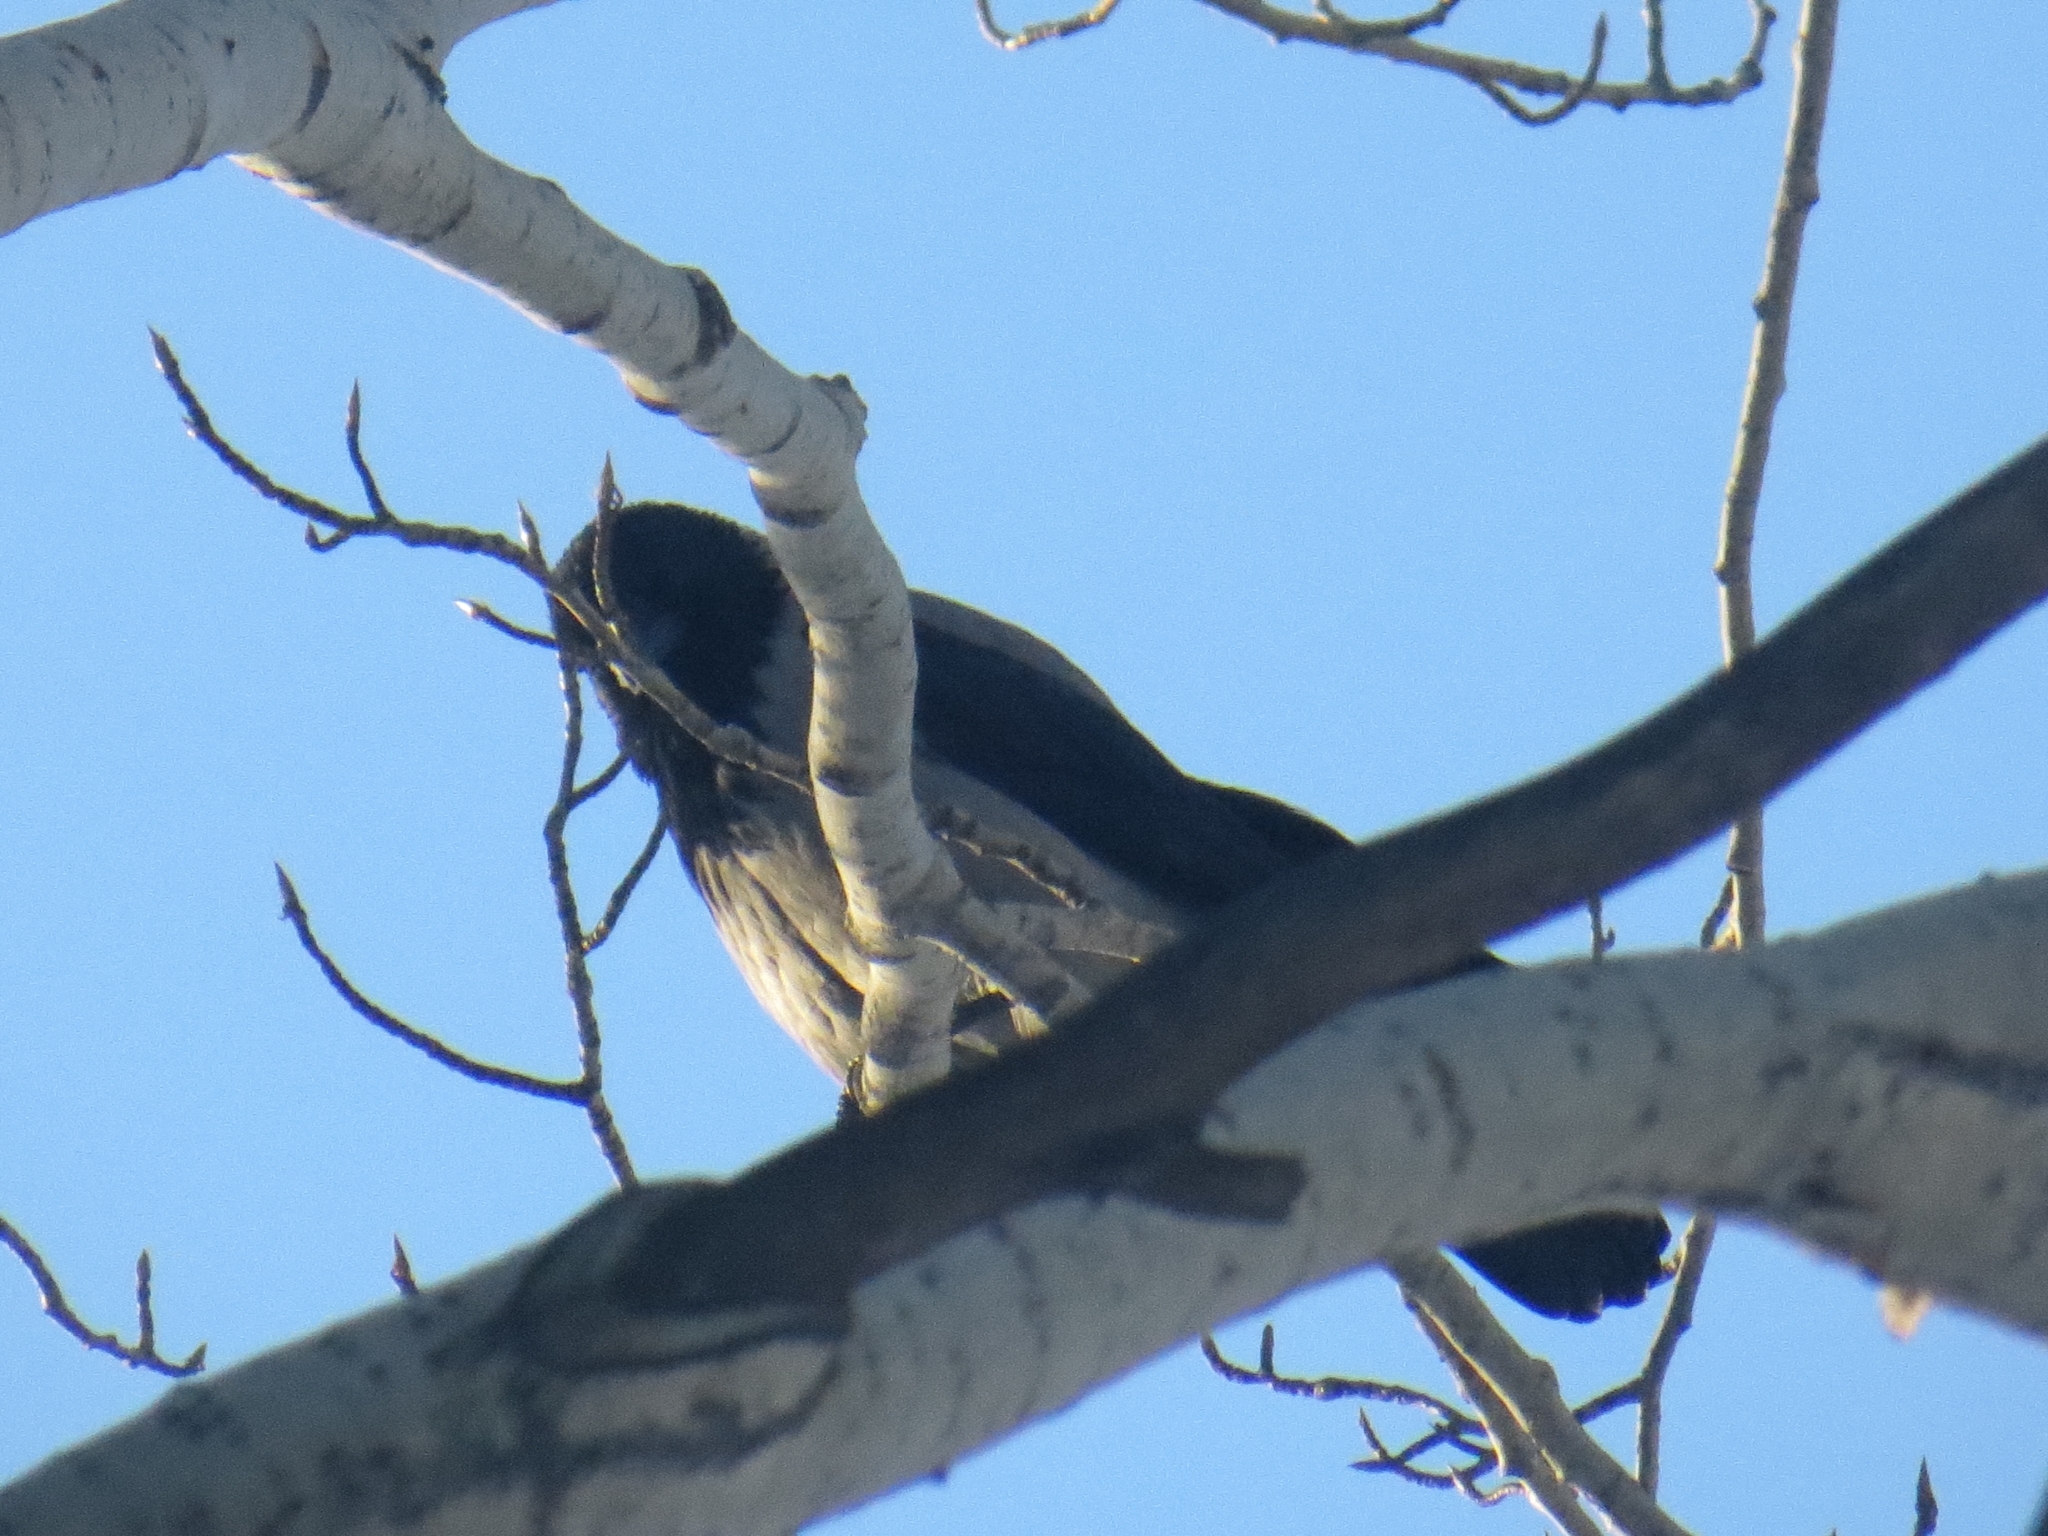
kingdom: Animalia
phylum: Chordata
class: Aves
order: Passeriformes
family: Corvidae
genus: Corvus
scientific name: Corvus cornix
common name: Hooded crow
